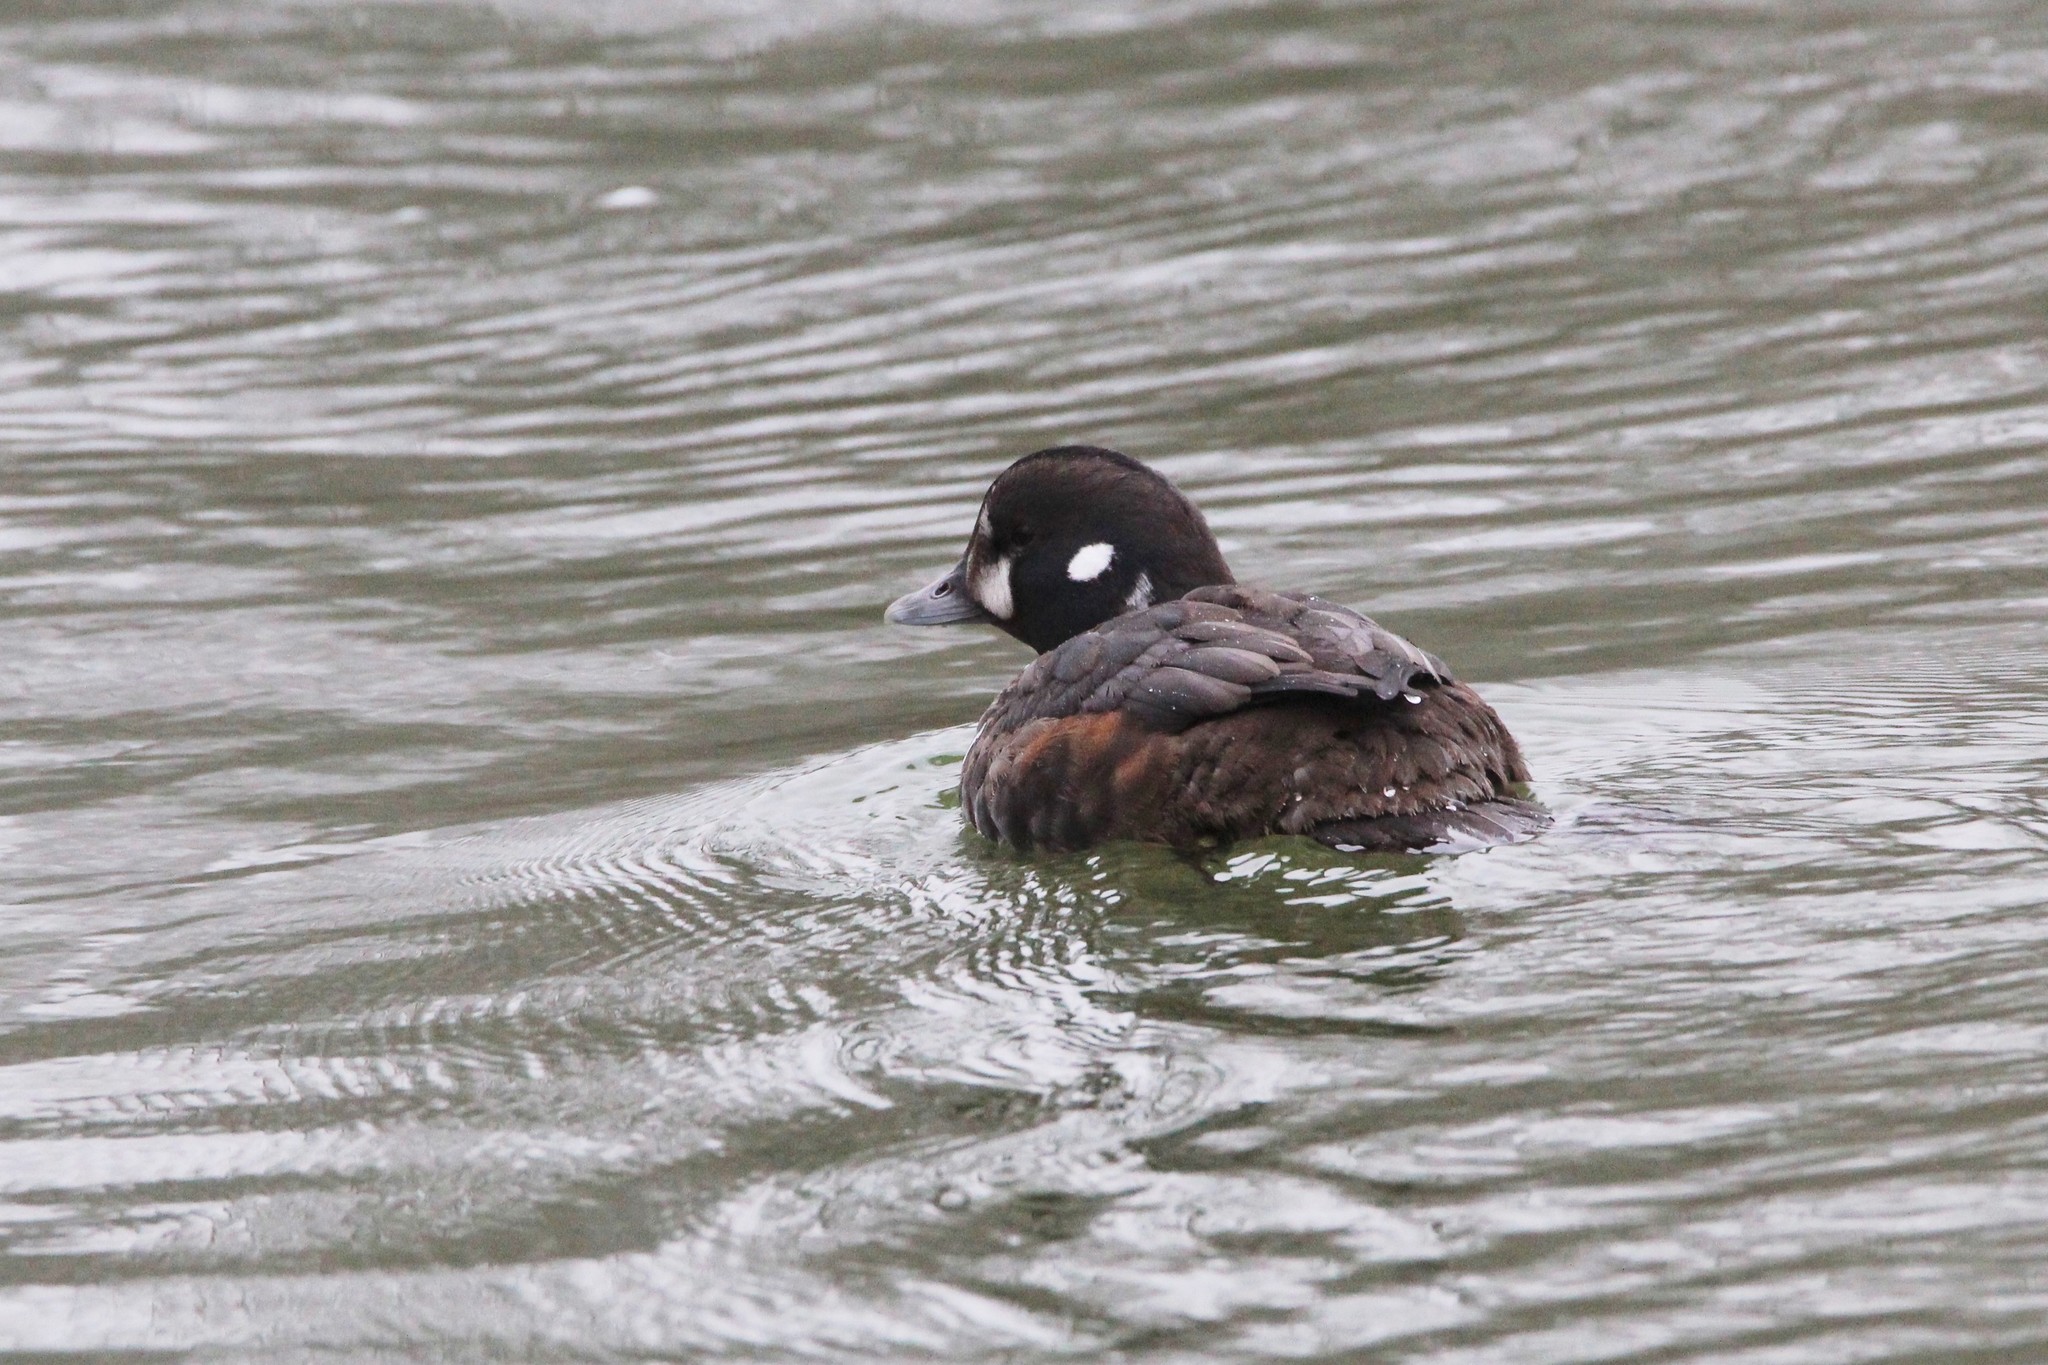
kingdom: Animalia
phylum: Chordata
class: Aves
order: Anseriformes
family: Anatidae
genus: Histrionicus
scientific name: Histrionicus histrionicus
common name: Harlequin duck
